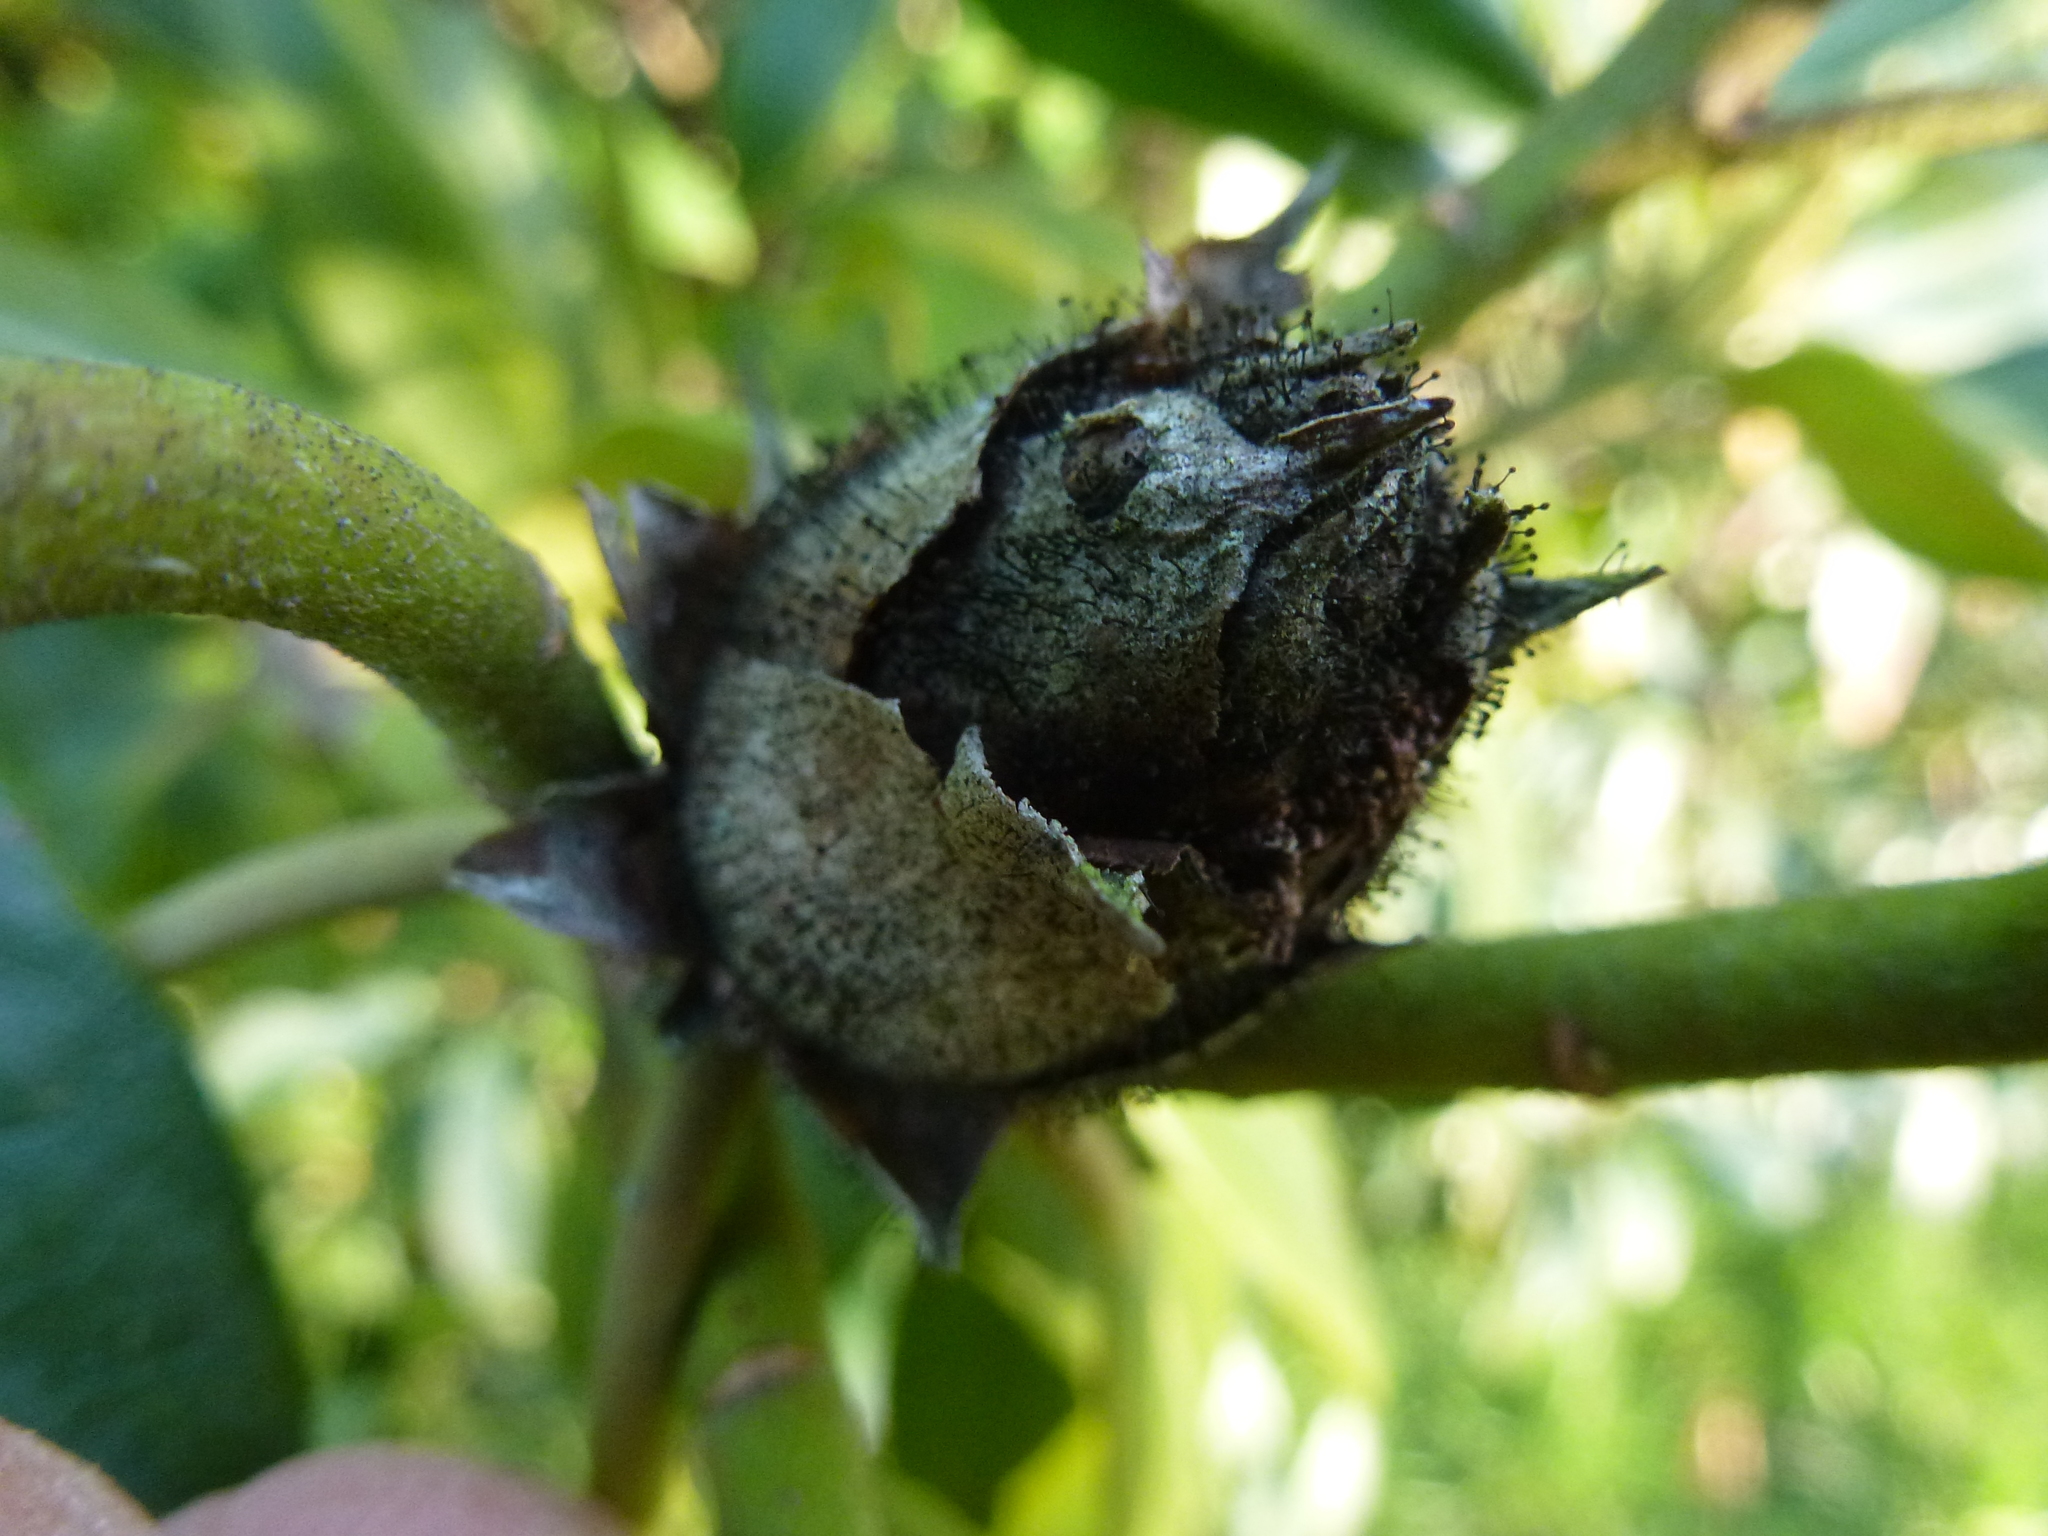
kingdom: Fungi
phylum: Ascomycota
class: Dothideomycetes
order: Pleosporales
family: Melanommataceae
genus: Seifertia
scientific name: Seifertia azaleae
